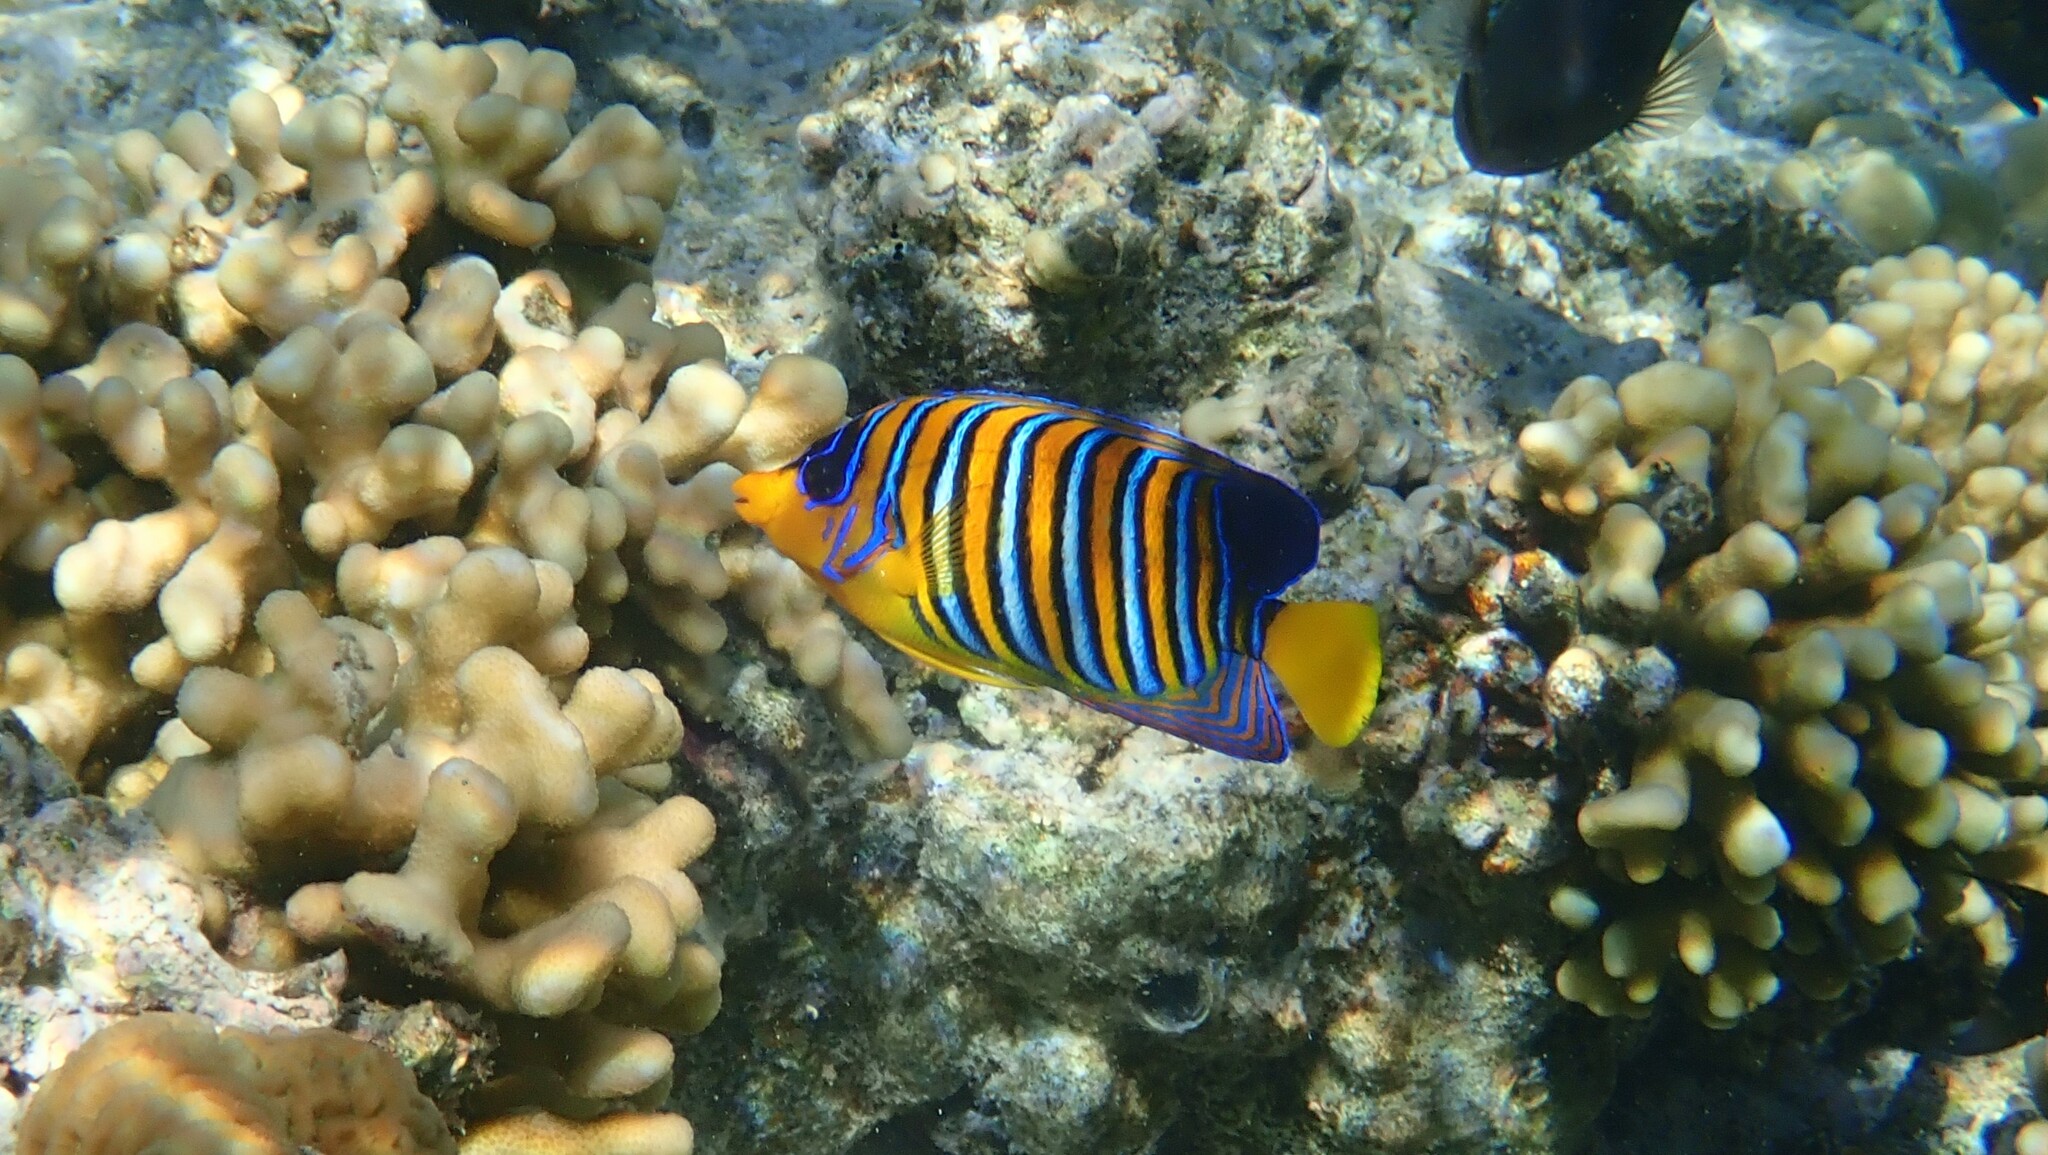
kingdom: Animalia
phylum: Chordata
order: Perciformes
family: Pomacanthidae
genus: Pygoplites
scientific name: Pygoplites diacanthus
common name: Regal angelfish
